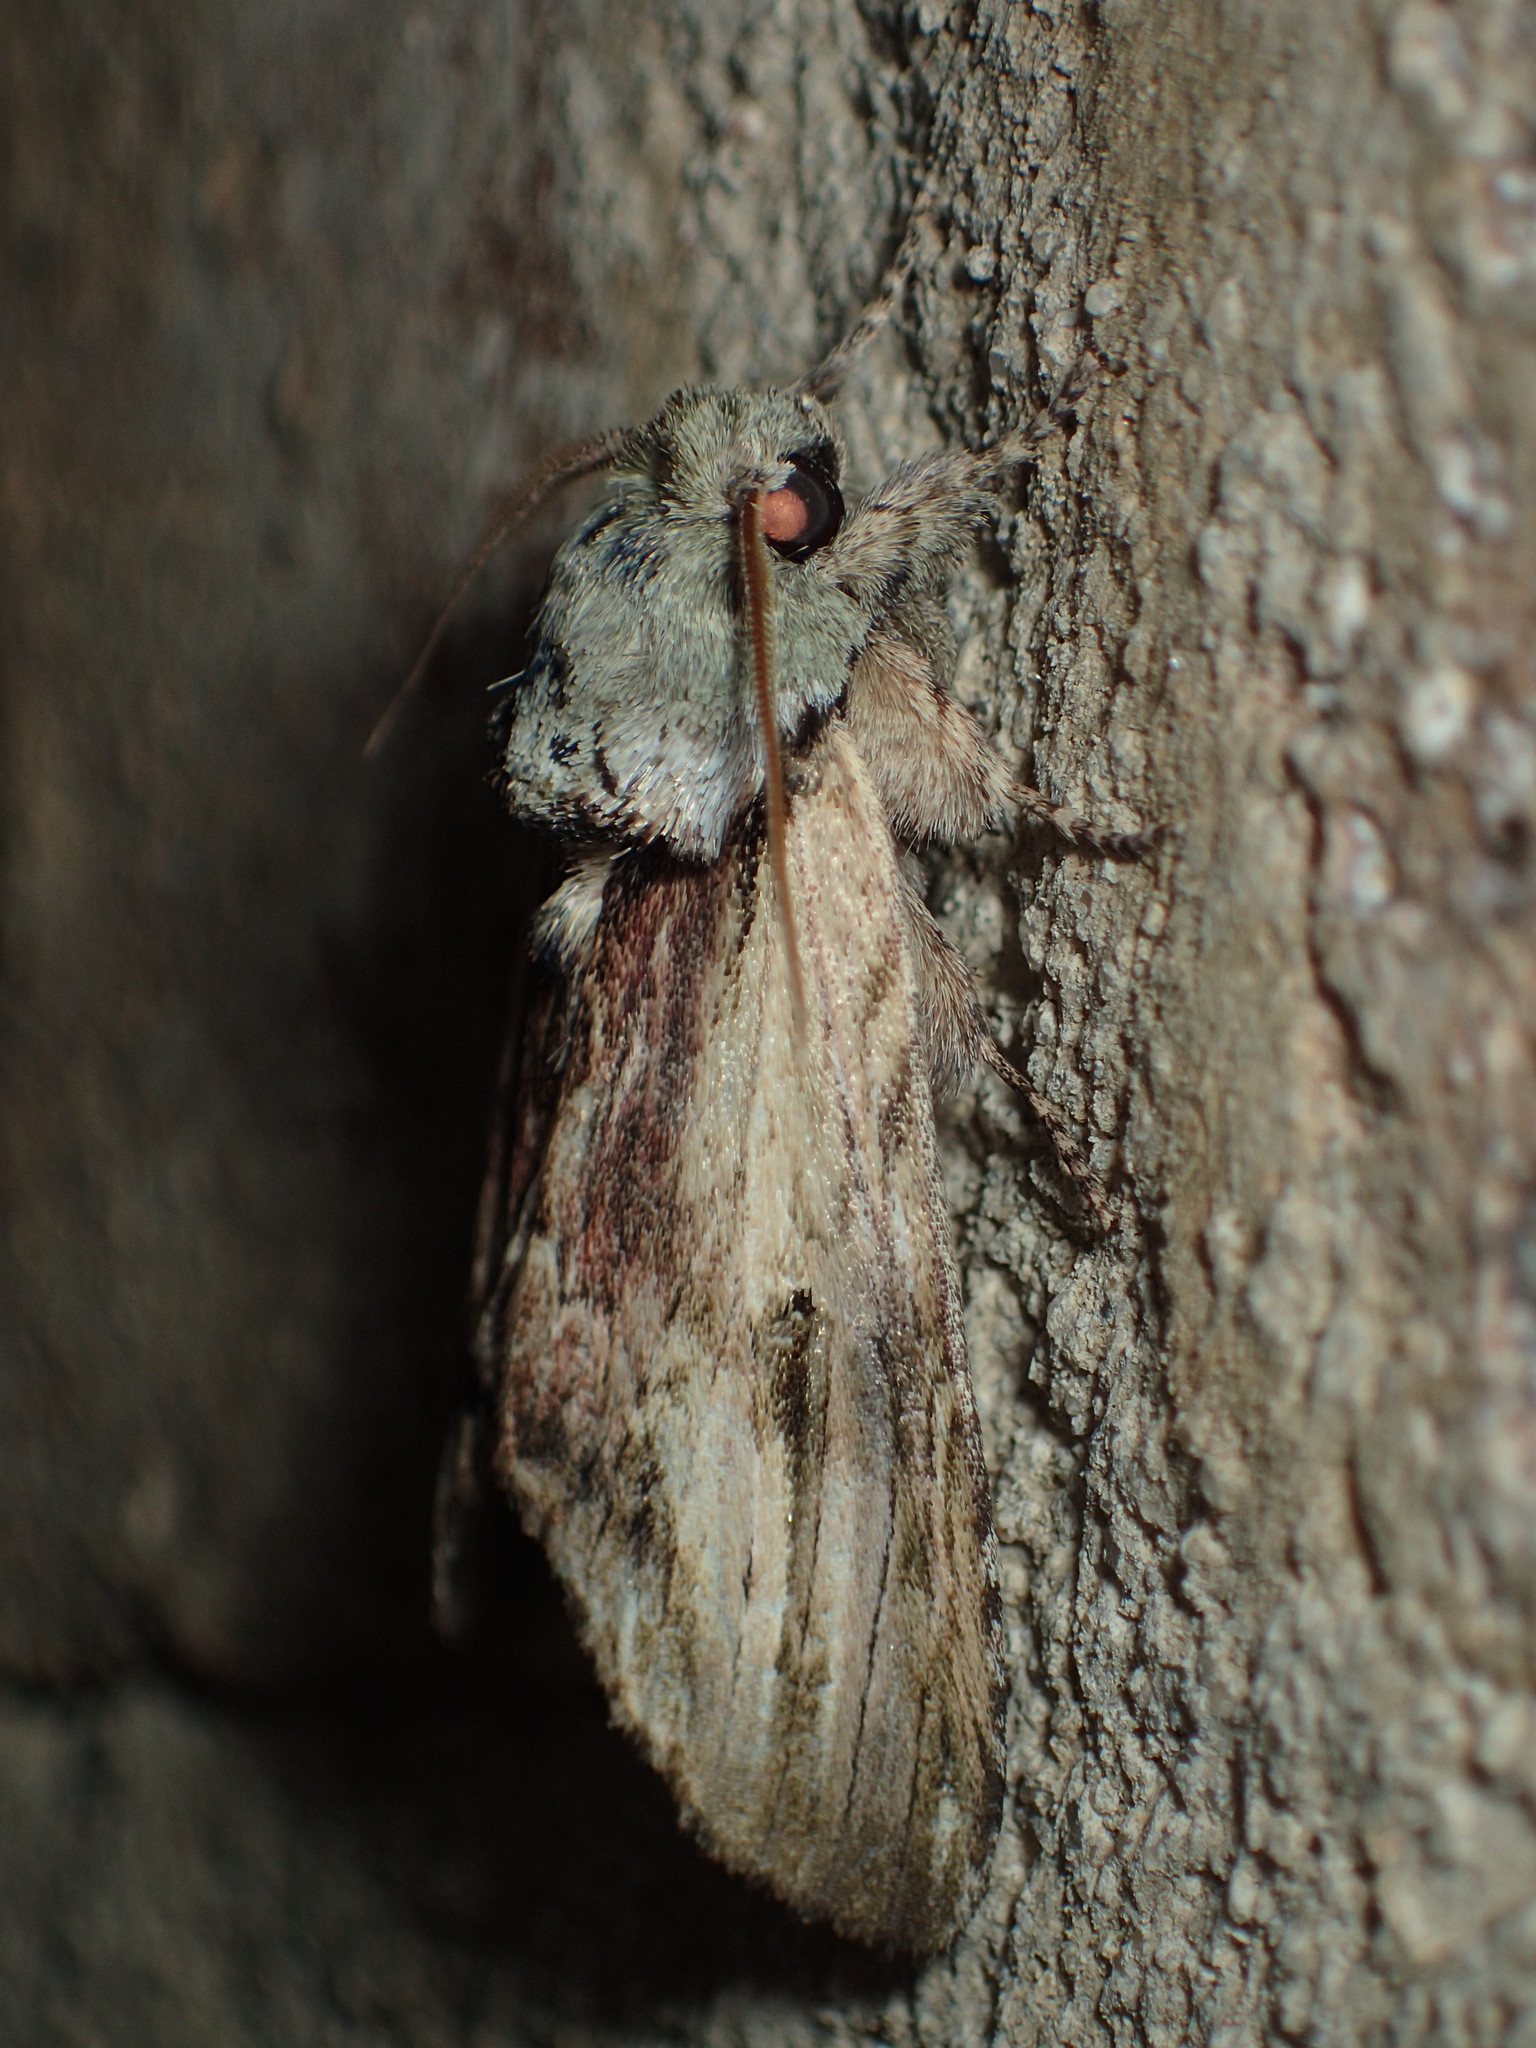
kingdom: Animalia
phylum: Arthropoda
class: Insecta
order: Lepidoptera
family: Notodontidae
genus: Schizura
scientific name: Schizura
